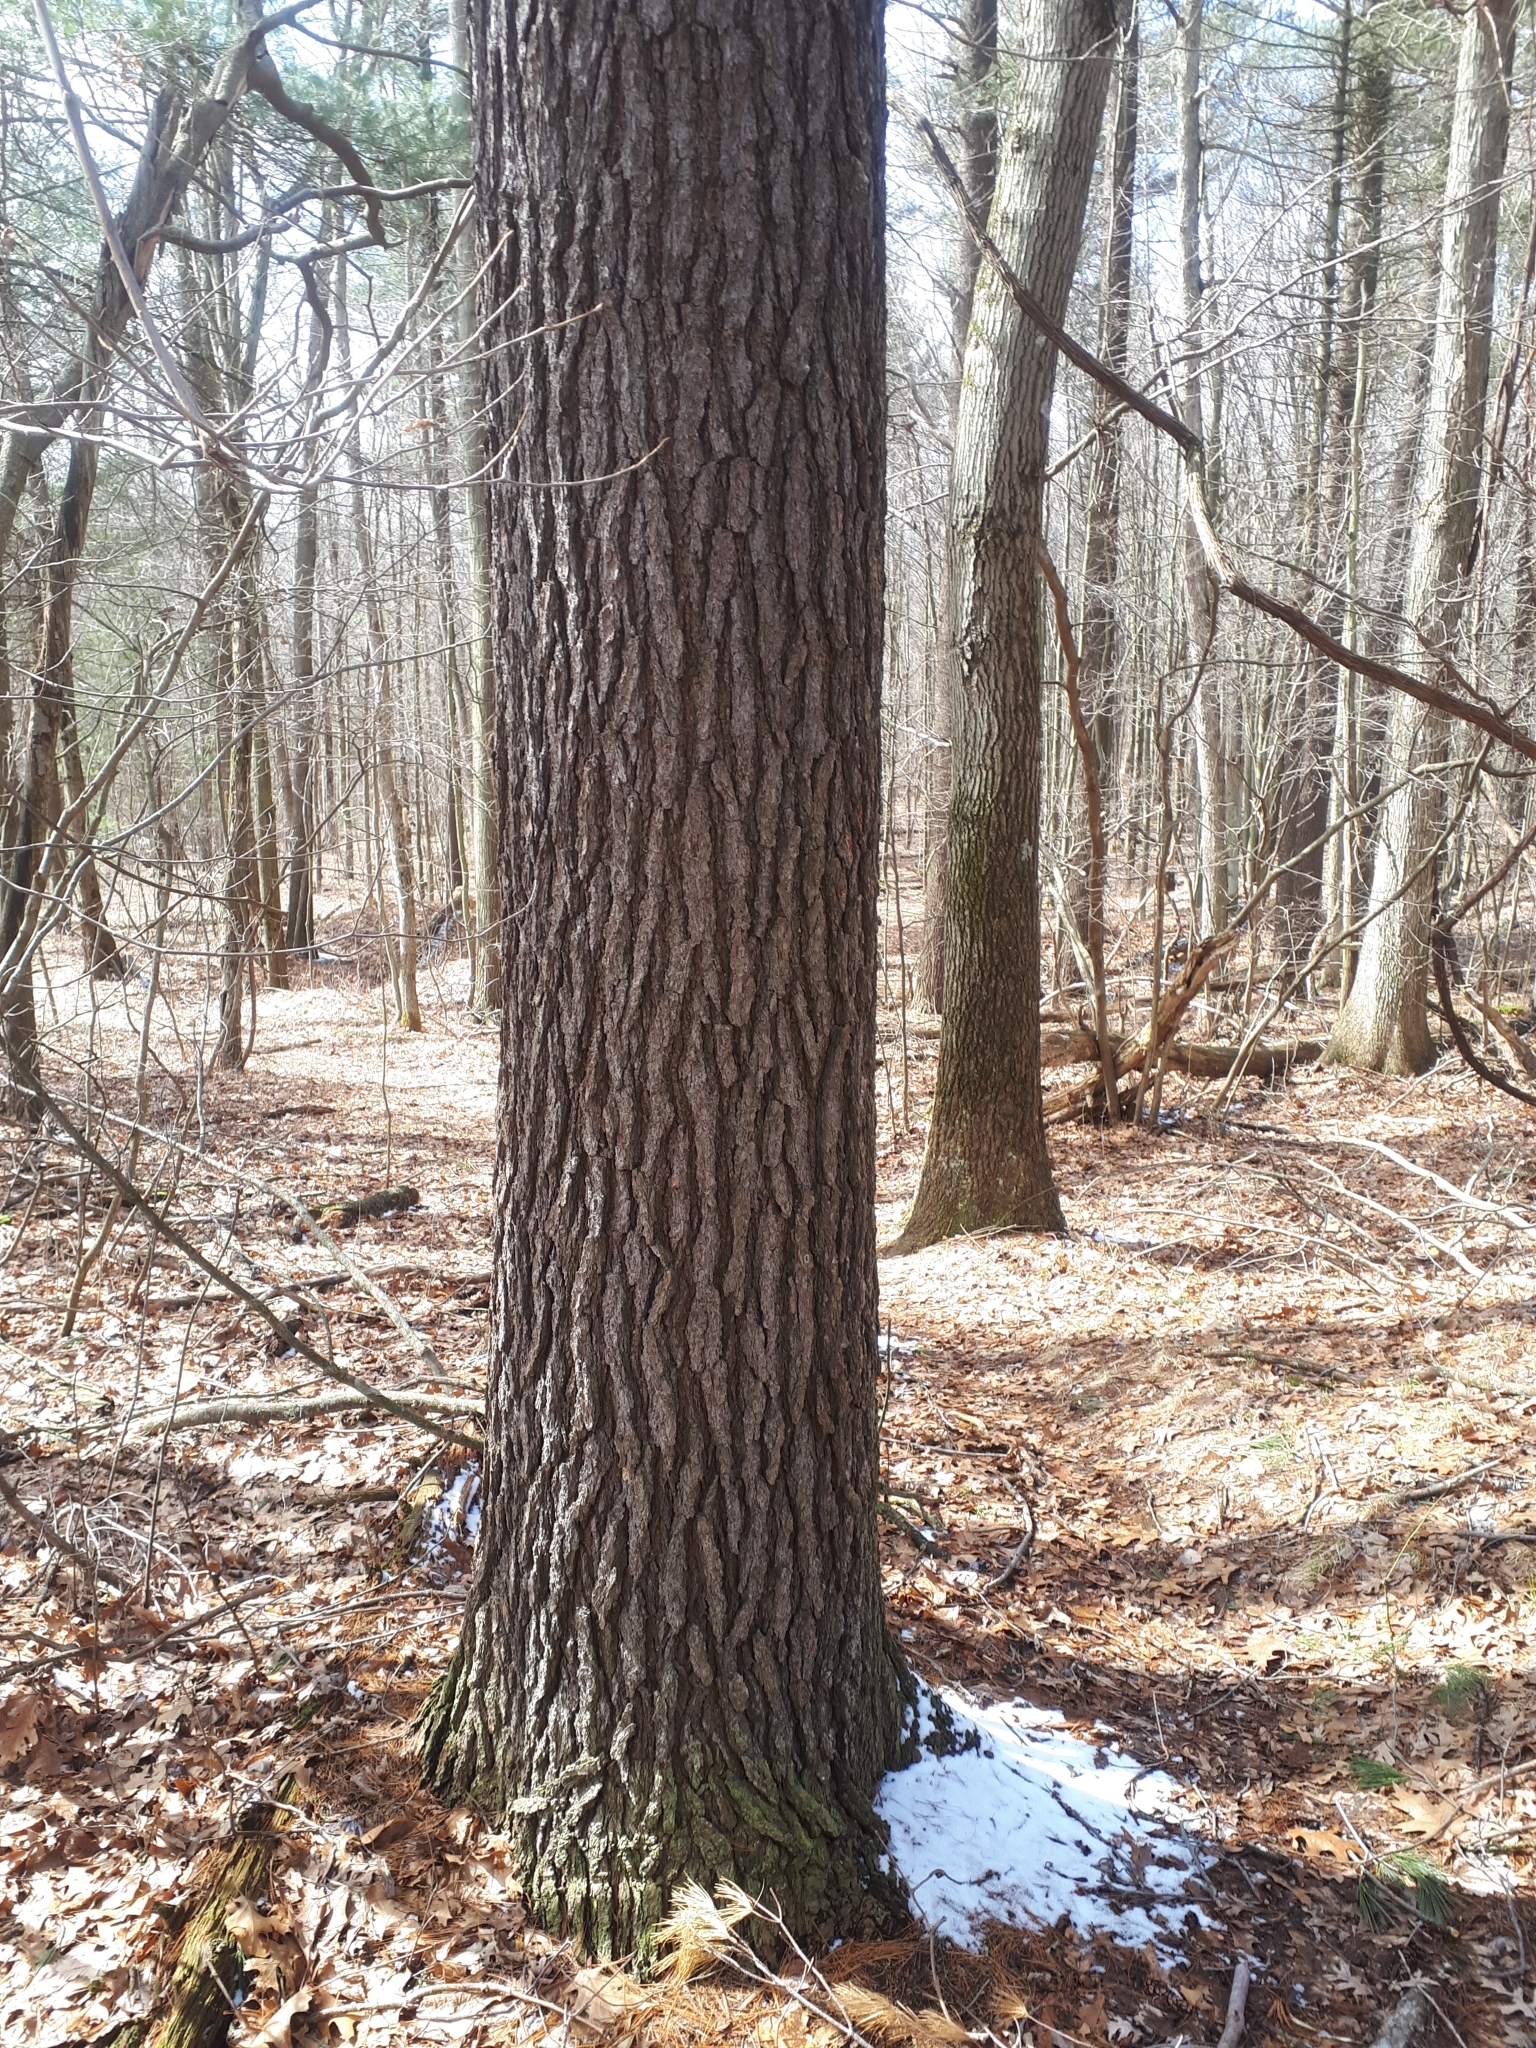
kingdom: Plantae
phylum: Tracheophyta
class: Pinopsida
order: Pinales
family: Pinaceae
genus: Pinus
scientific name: Pinus strobus
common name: Weymouth pine
